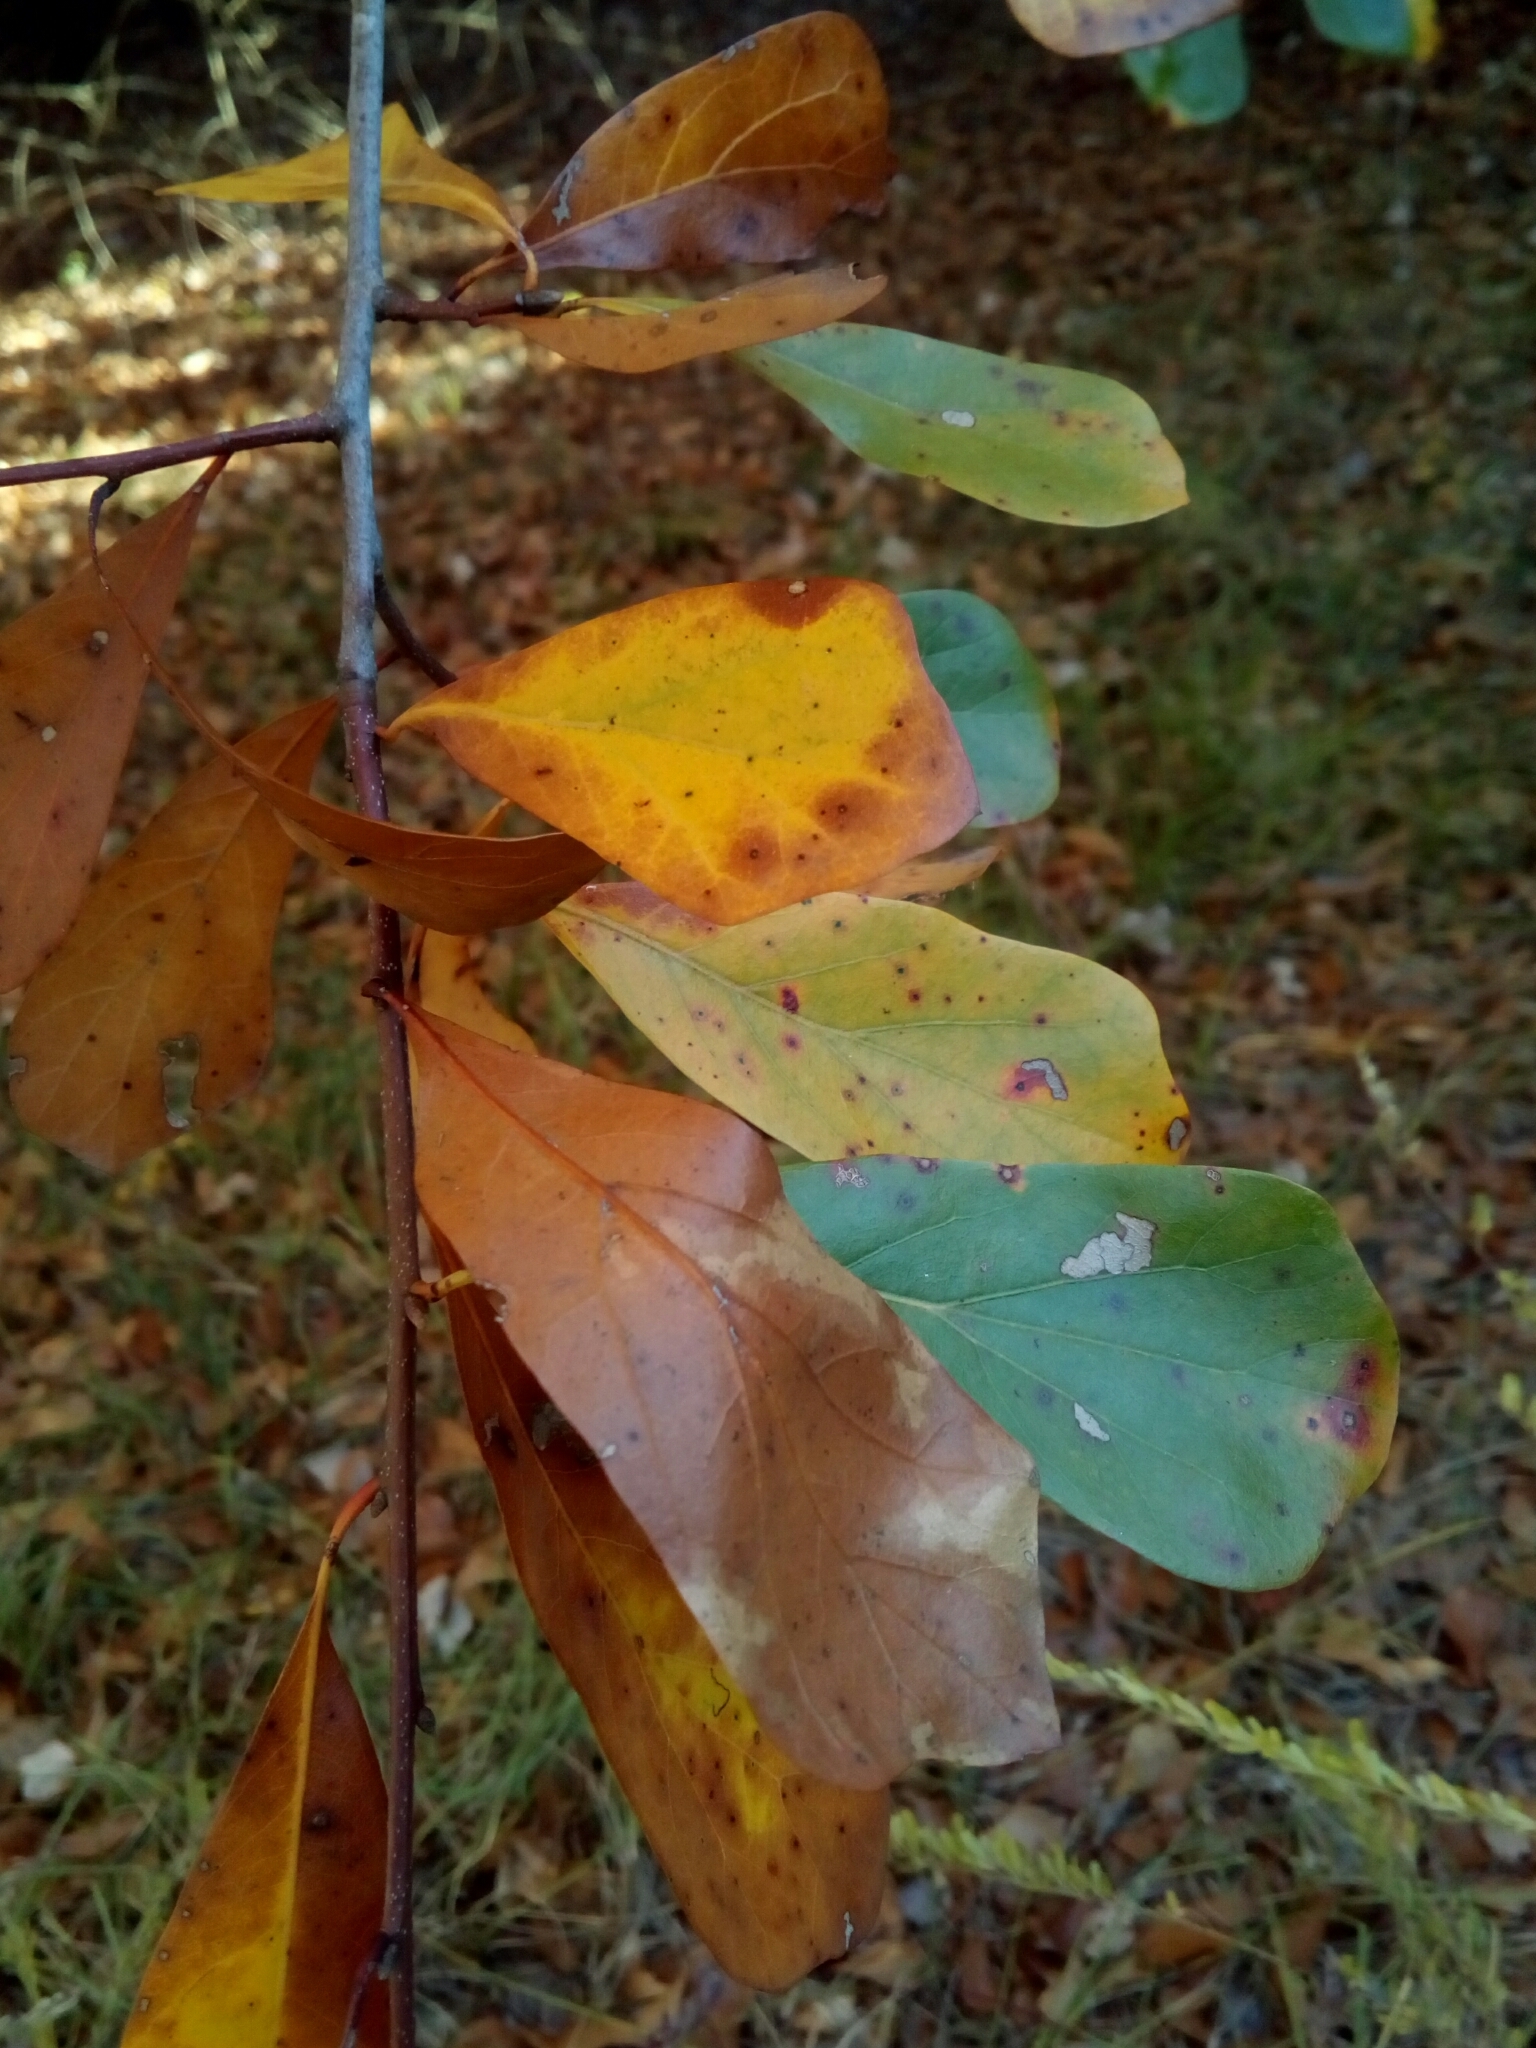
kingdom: Plantae
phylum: Tracheophyta
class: Magnoliopsida
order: Fagales
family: Fagaceae
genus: Quercus
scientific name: Quercus nigra
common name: Water oak
